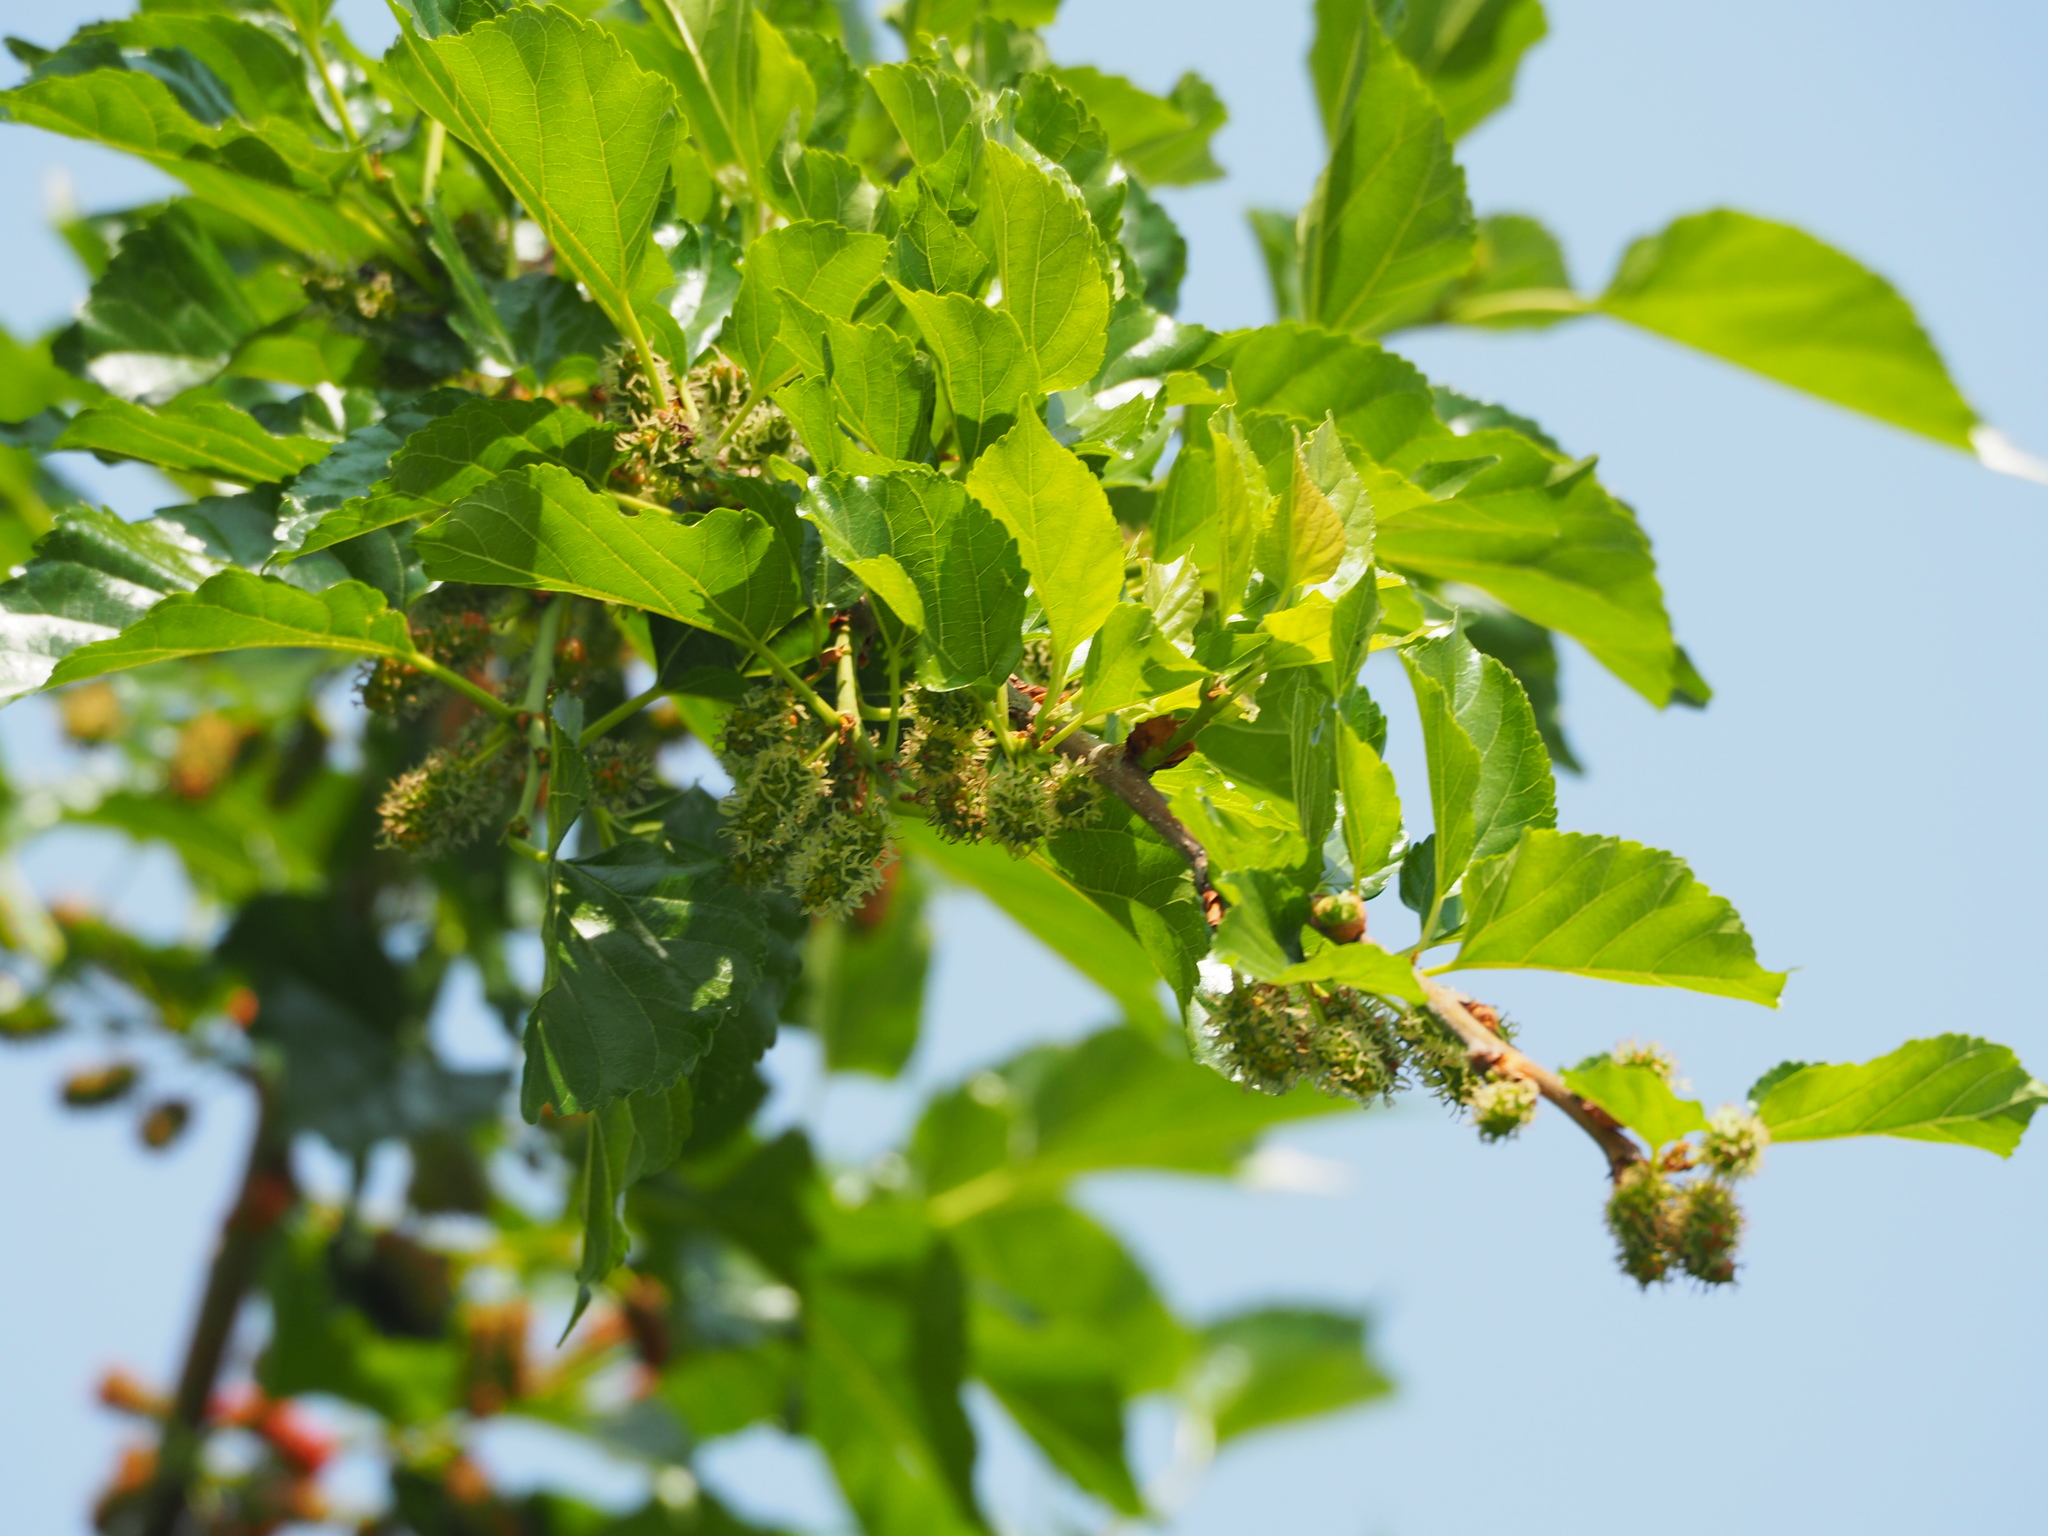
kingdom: Plantae
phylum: Tracheophyta
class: Magnoliopsida
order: Rosales
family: Moraceae
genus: Morus
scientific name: Morus indica
